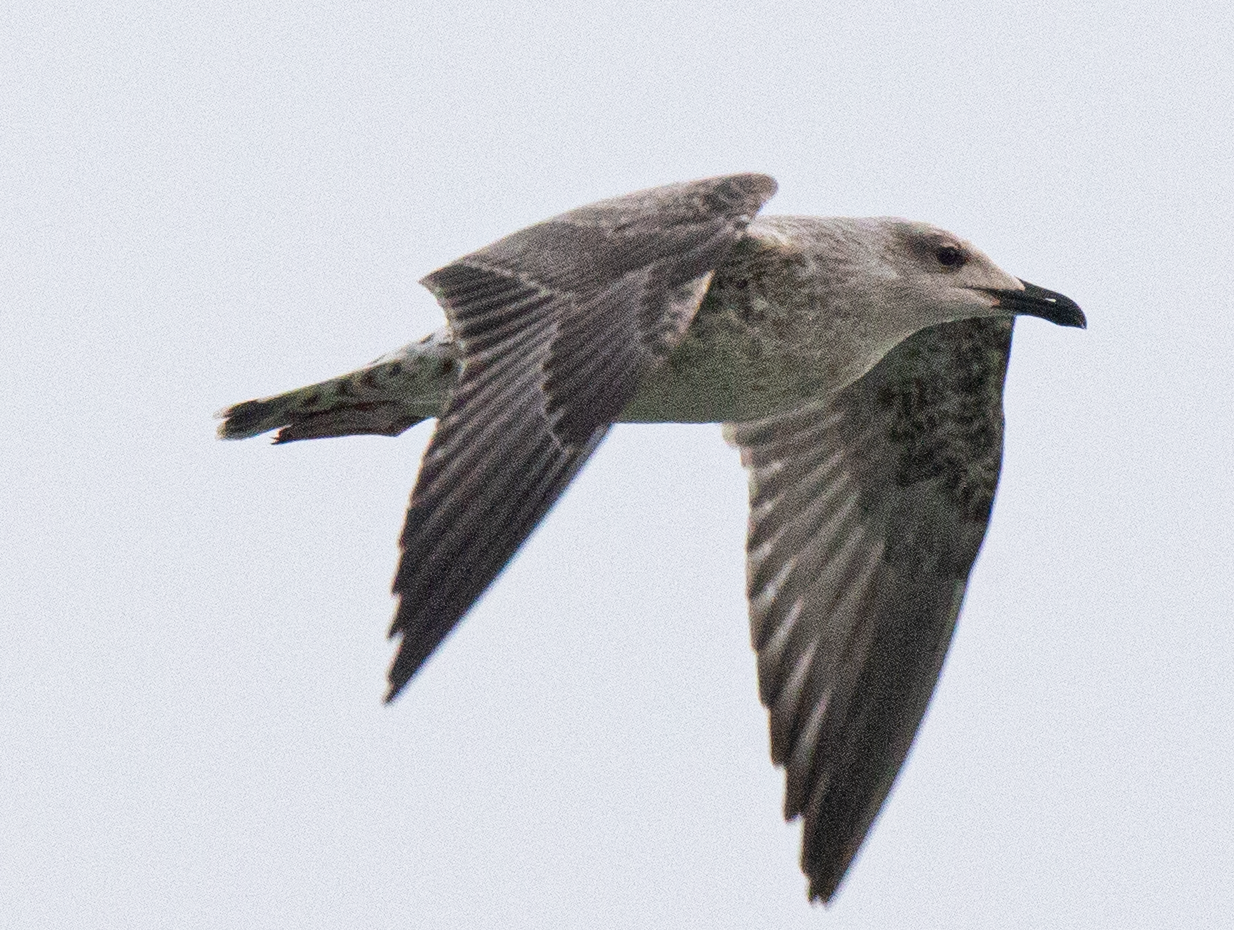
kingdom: Animalia
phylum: Chordata
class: Aves
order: Charadriiformes
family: Laridae
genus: Larus
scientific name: Larus michahellis
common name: Yellow-legged gull
